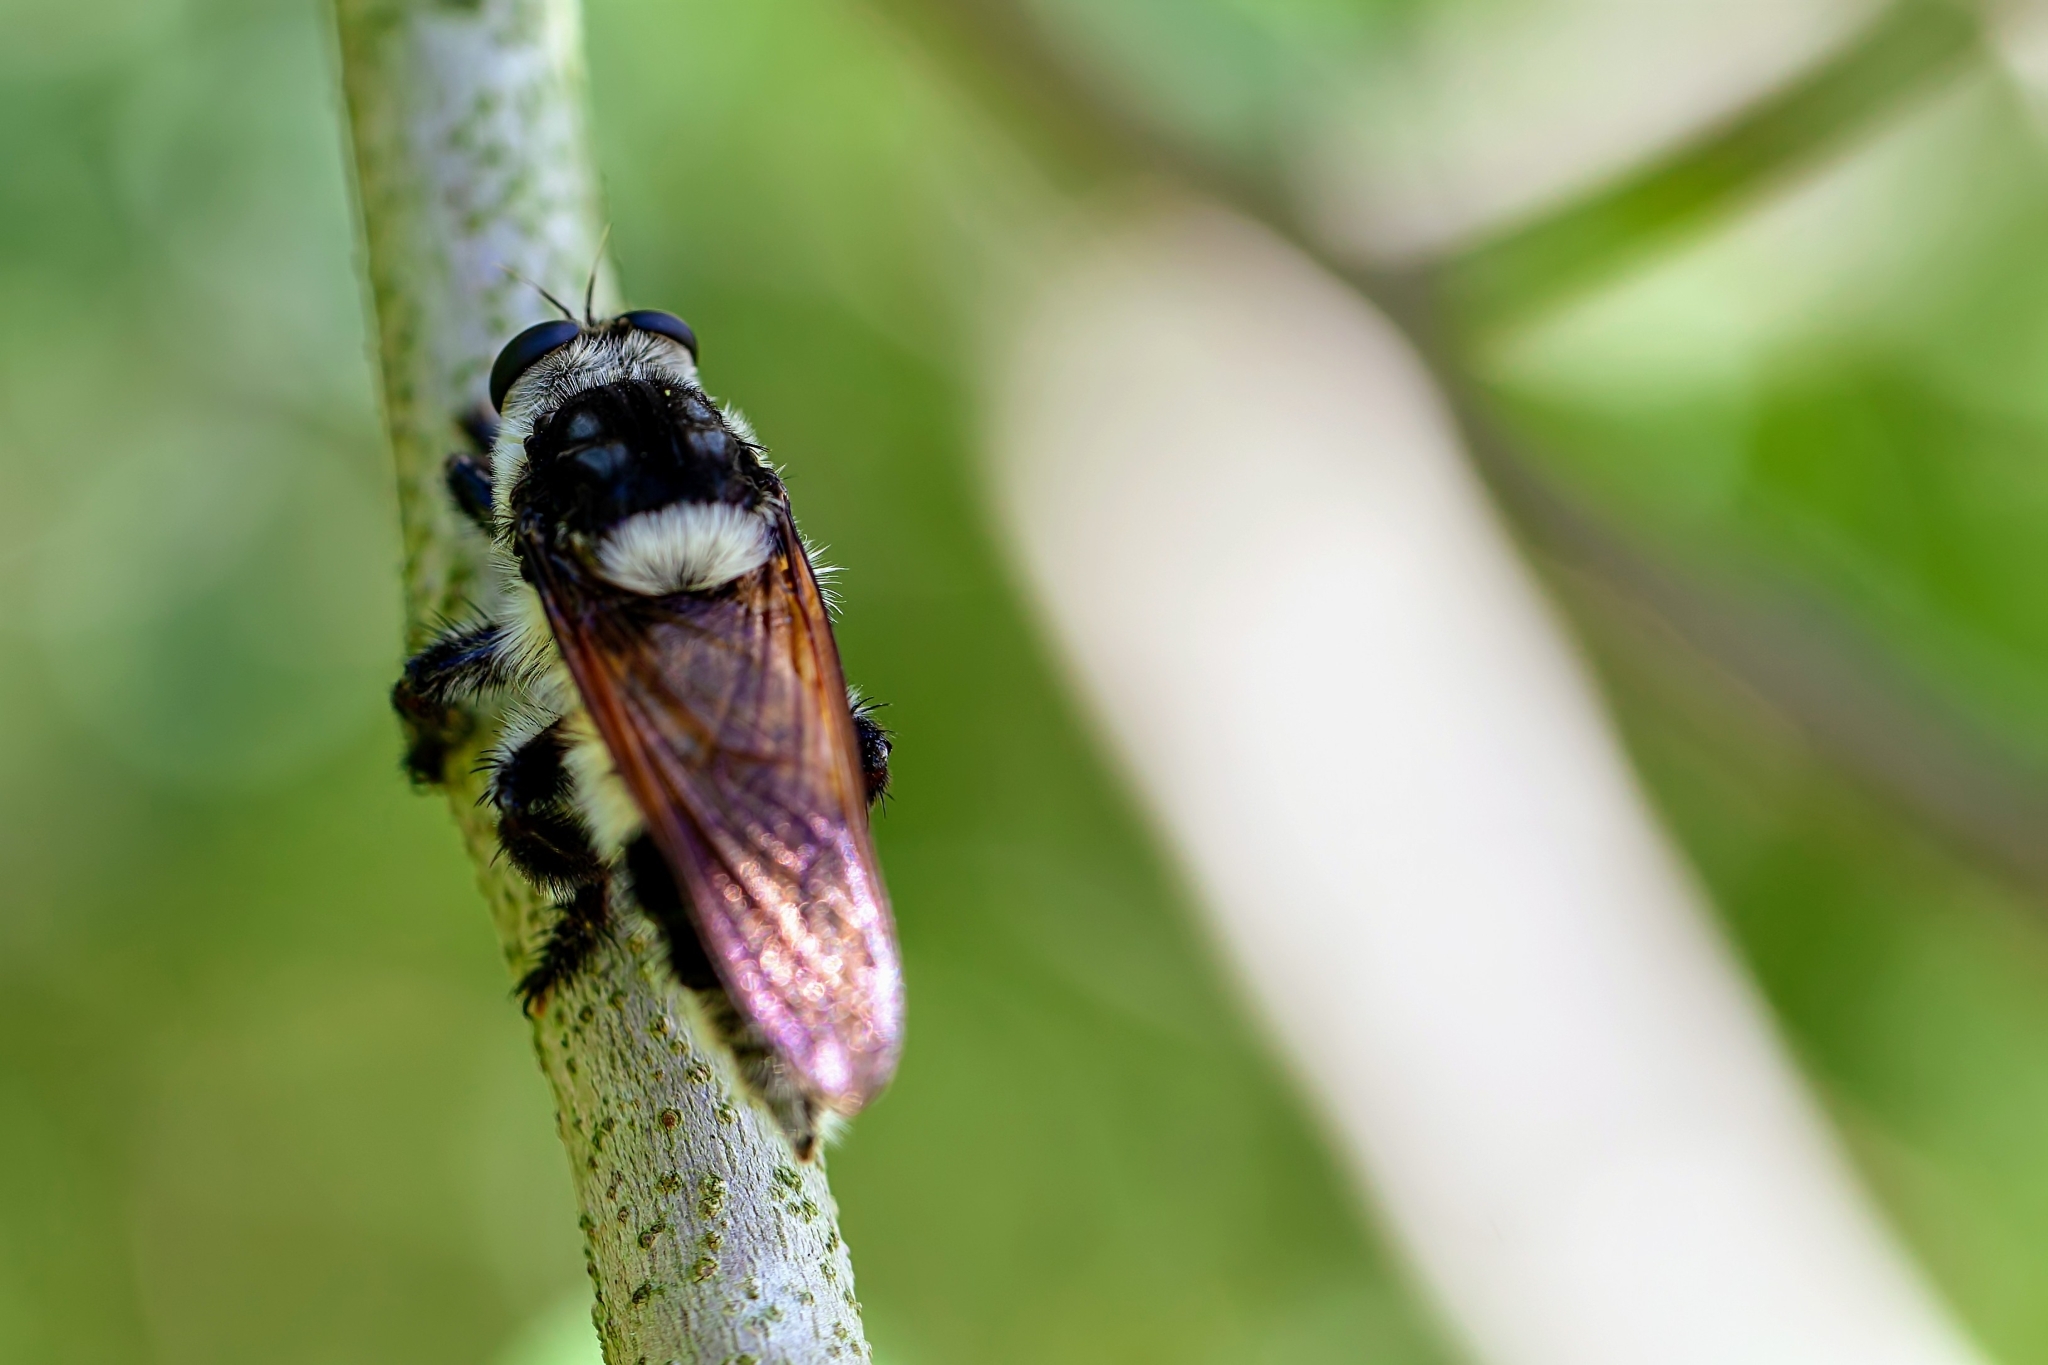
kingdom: Animalia
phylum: Arthropoda
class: Insecta
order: Diptera
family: Asilidae
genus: Mallophora
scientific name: Mallophora bomboides
